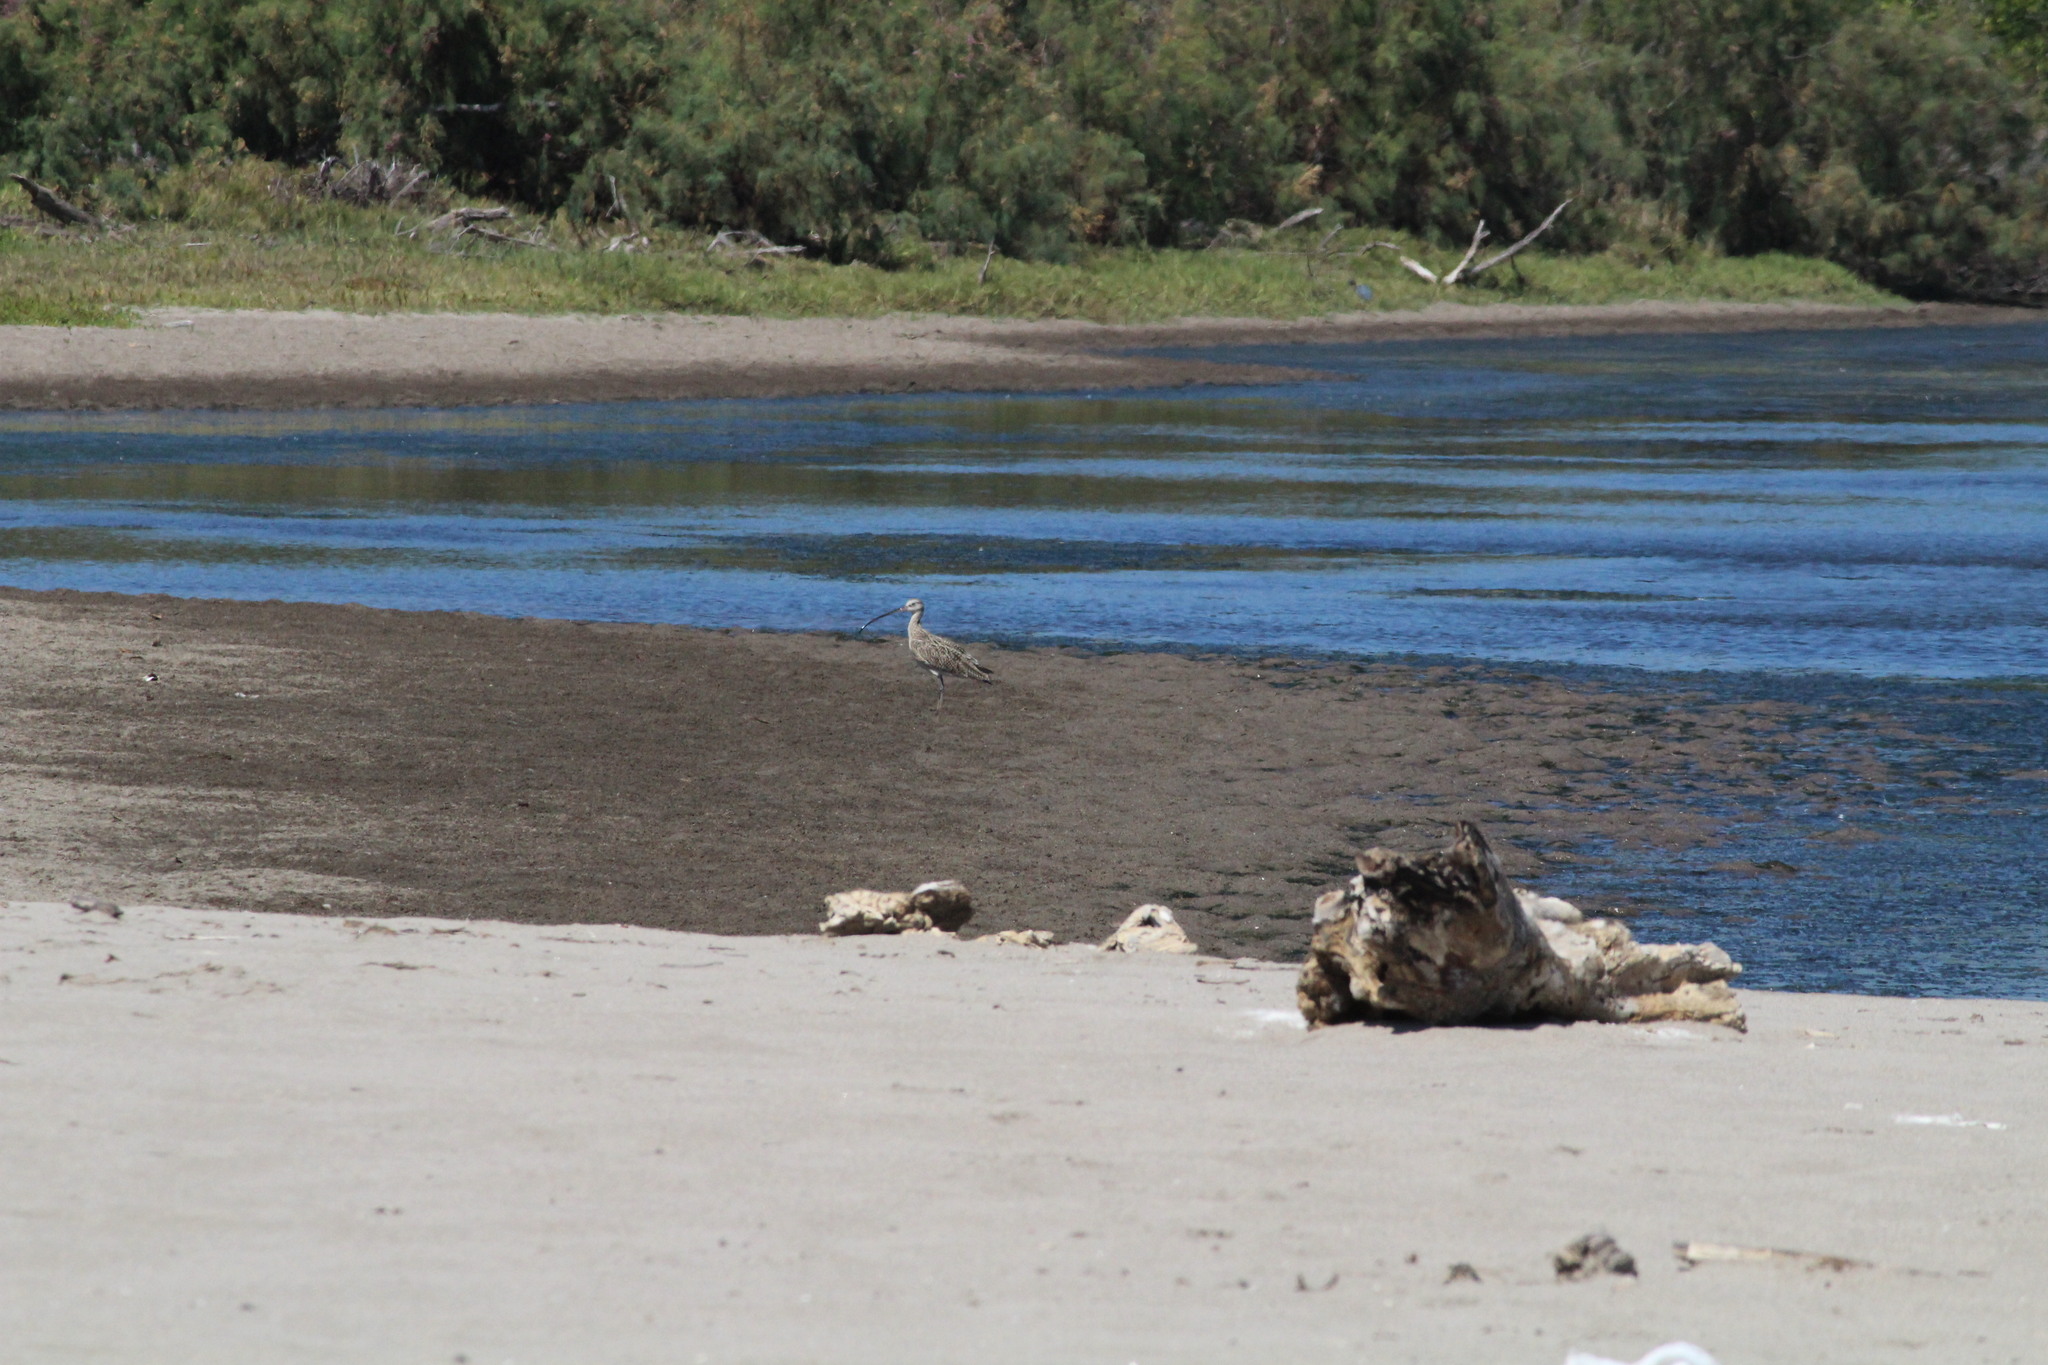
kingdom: Animalia
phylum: Chordata
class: Aves
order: Charadriiformes
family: Scolopacidae
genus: Numenius
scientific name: Numenius americanus
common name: Long-billed curlew
